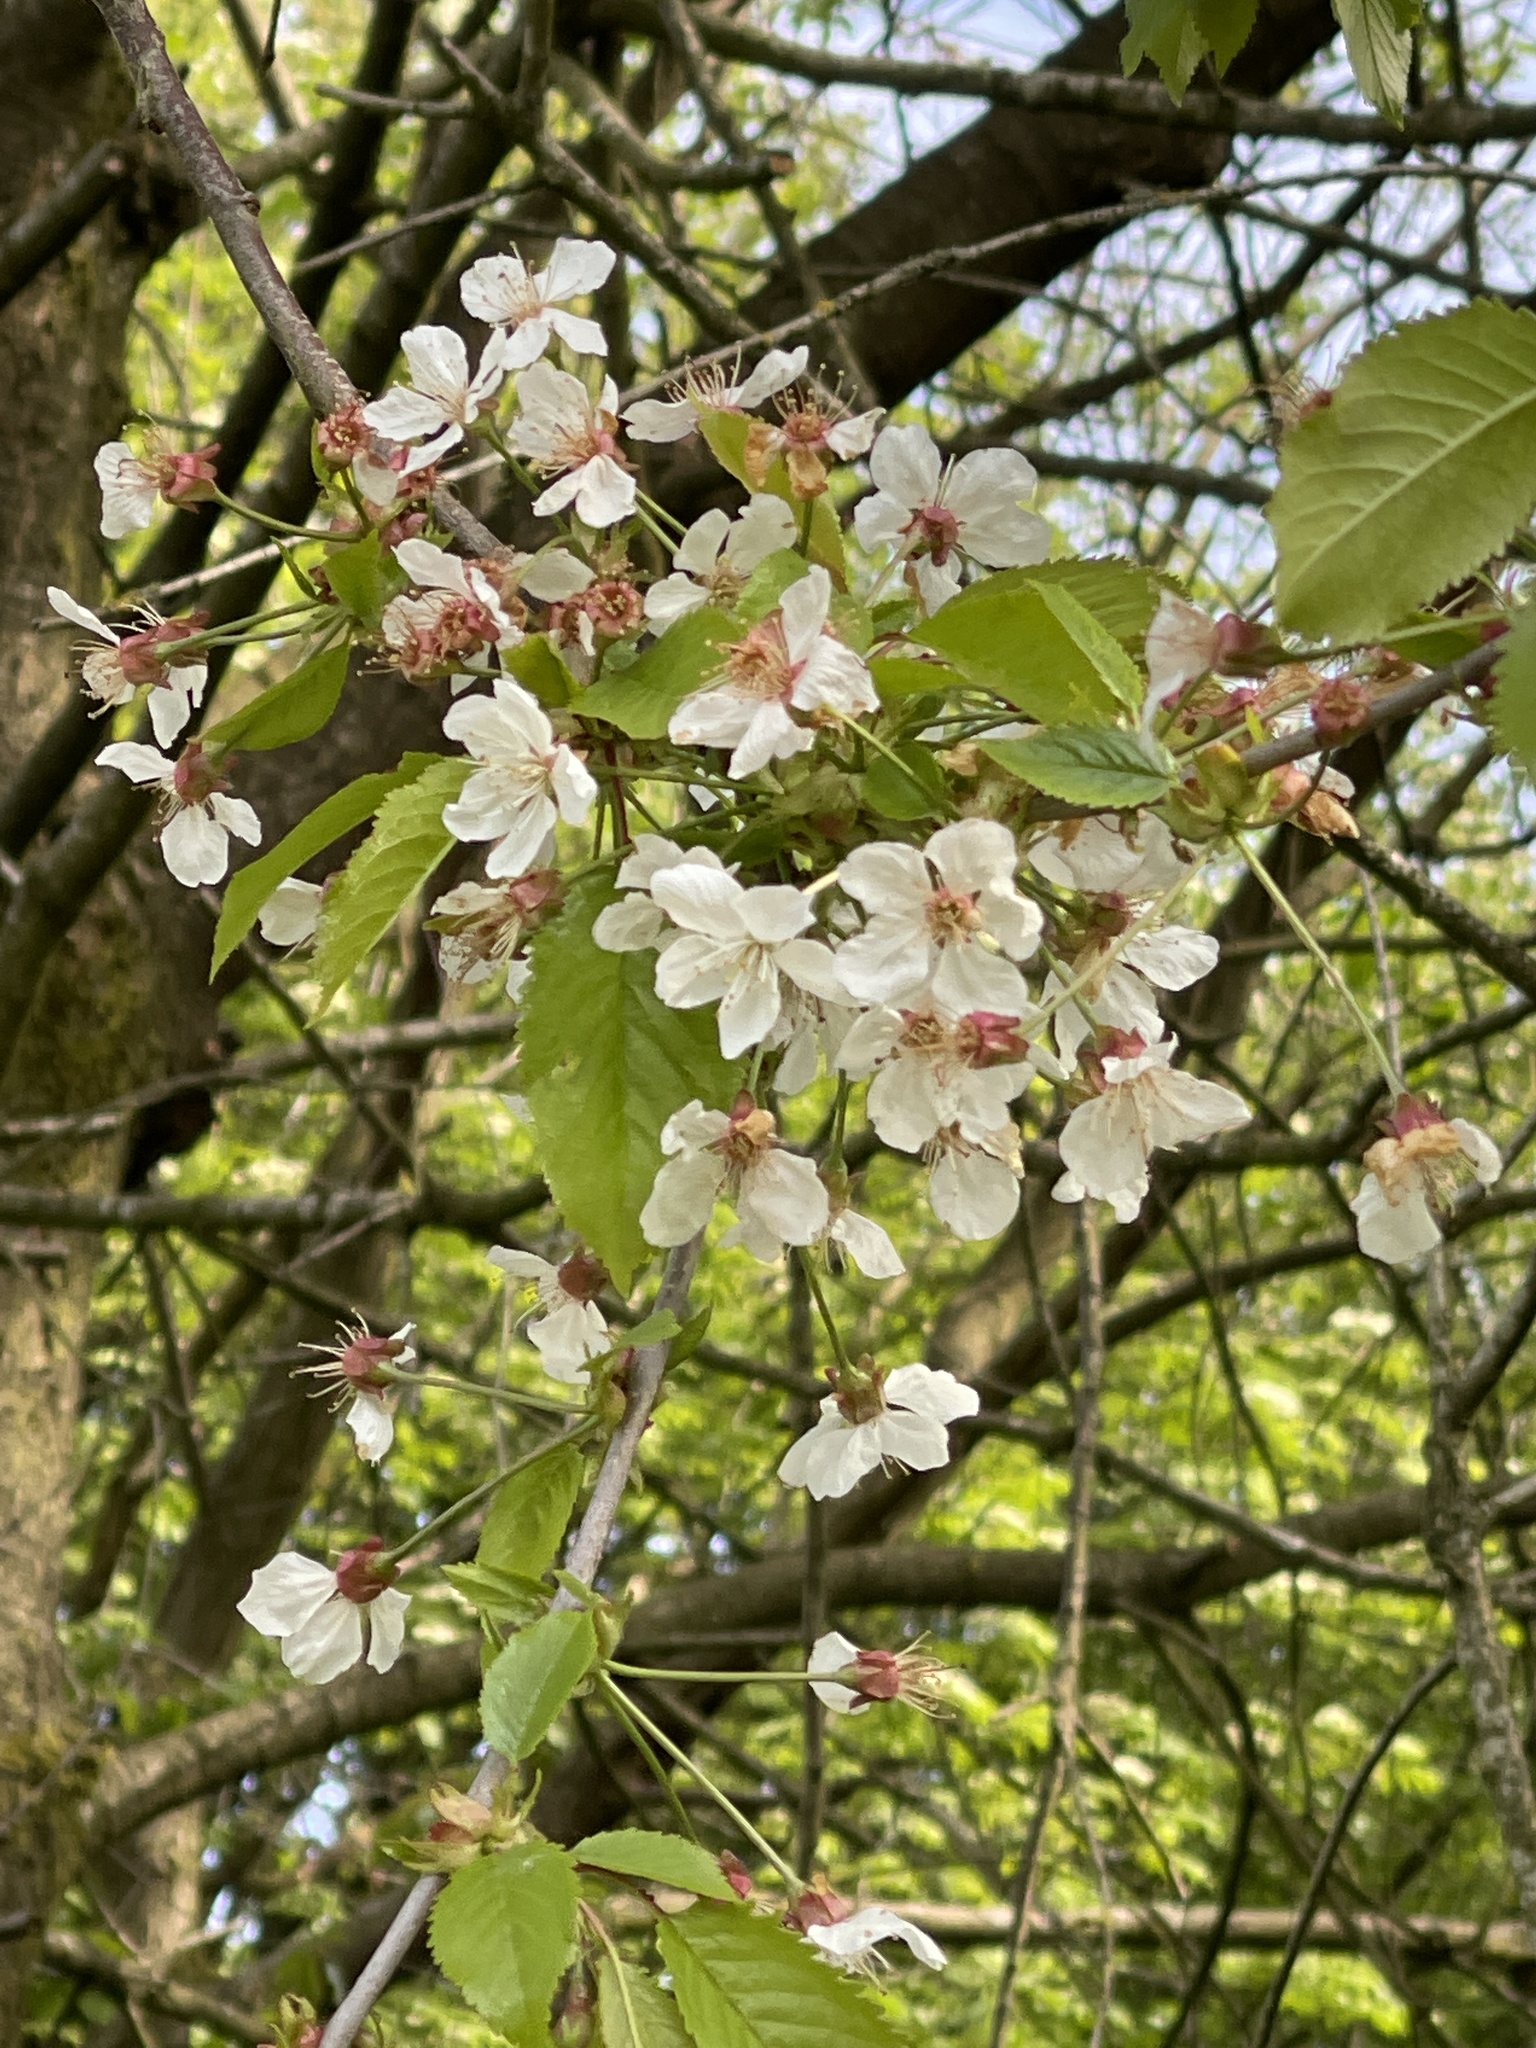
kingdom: Plantae
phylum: Tracheophyta
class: Magnoliopsida
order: Rosales
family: Rosaceae
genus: Prunus
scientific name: Prunus avium
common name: Sweet cherry
